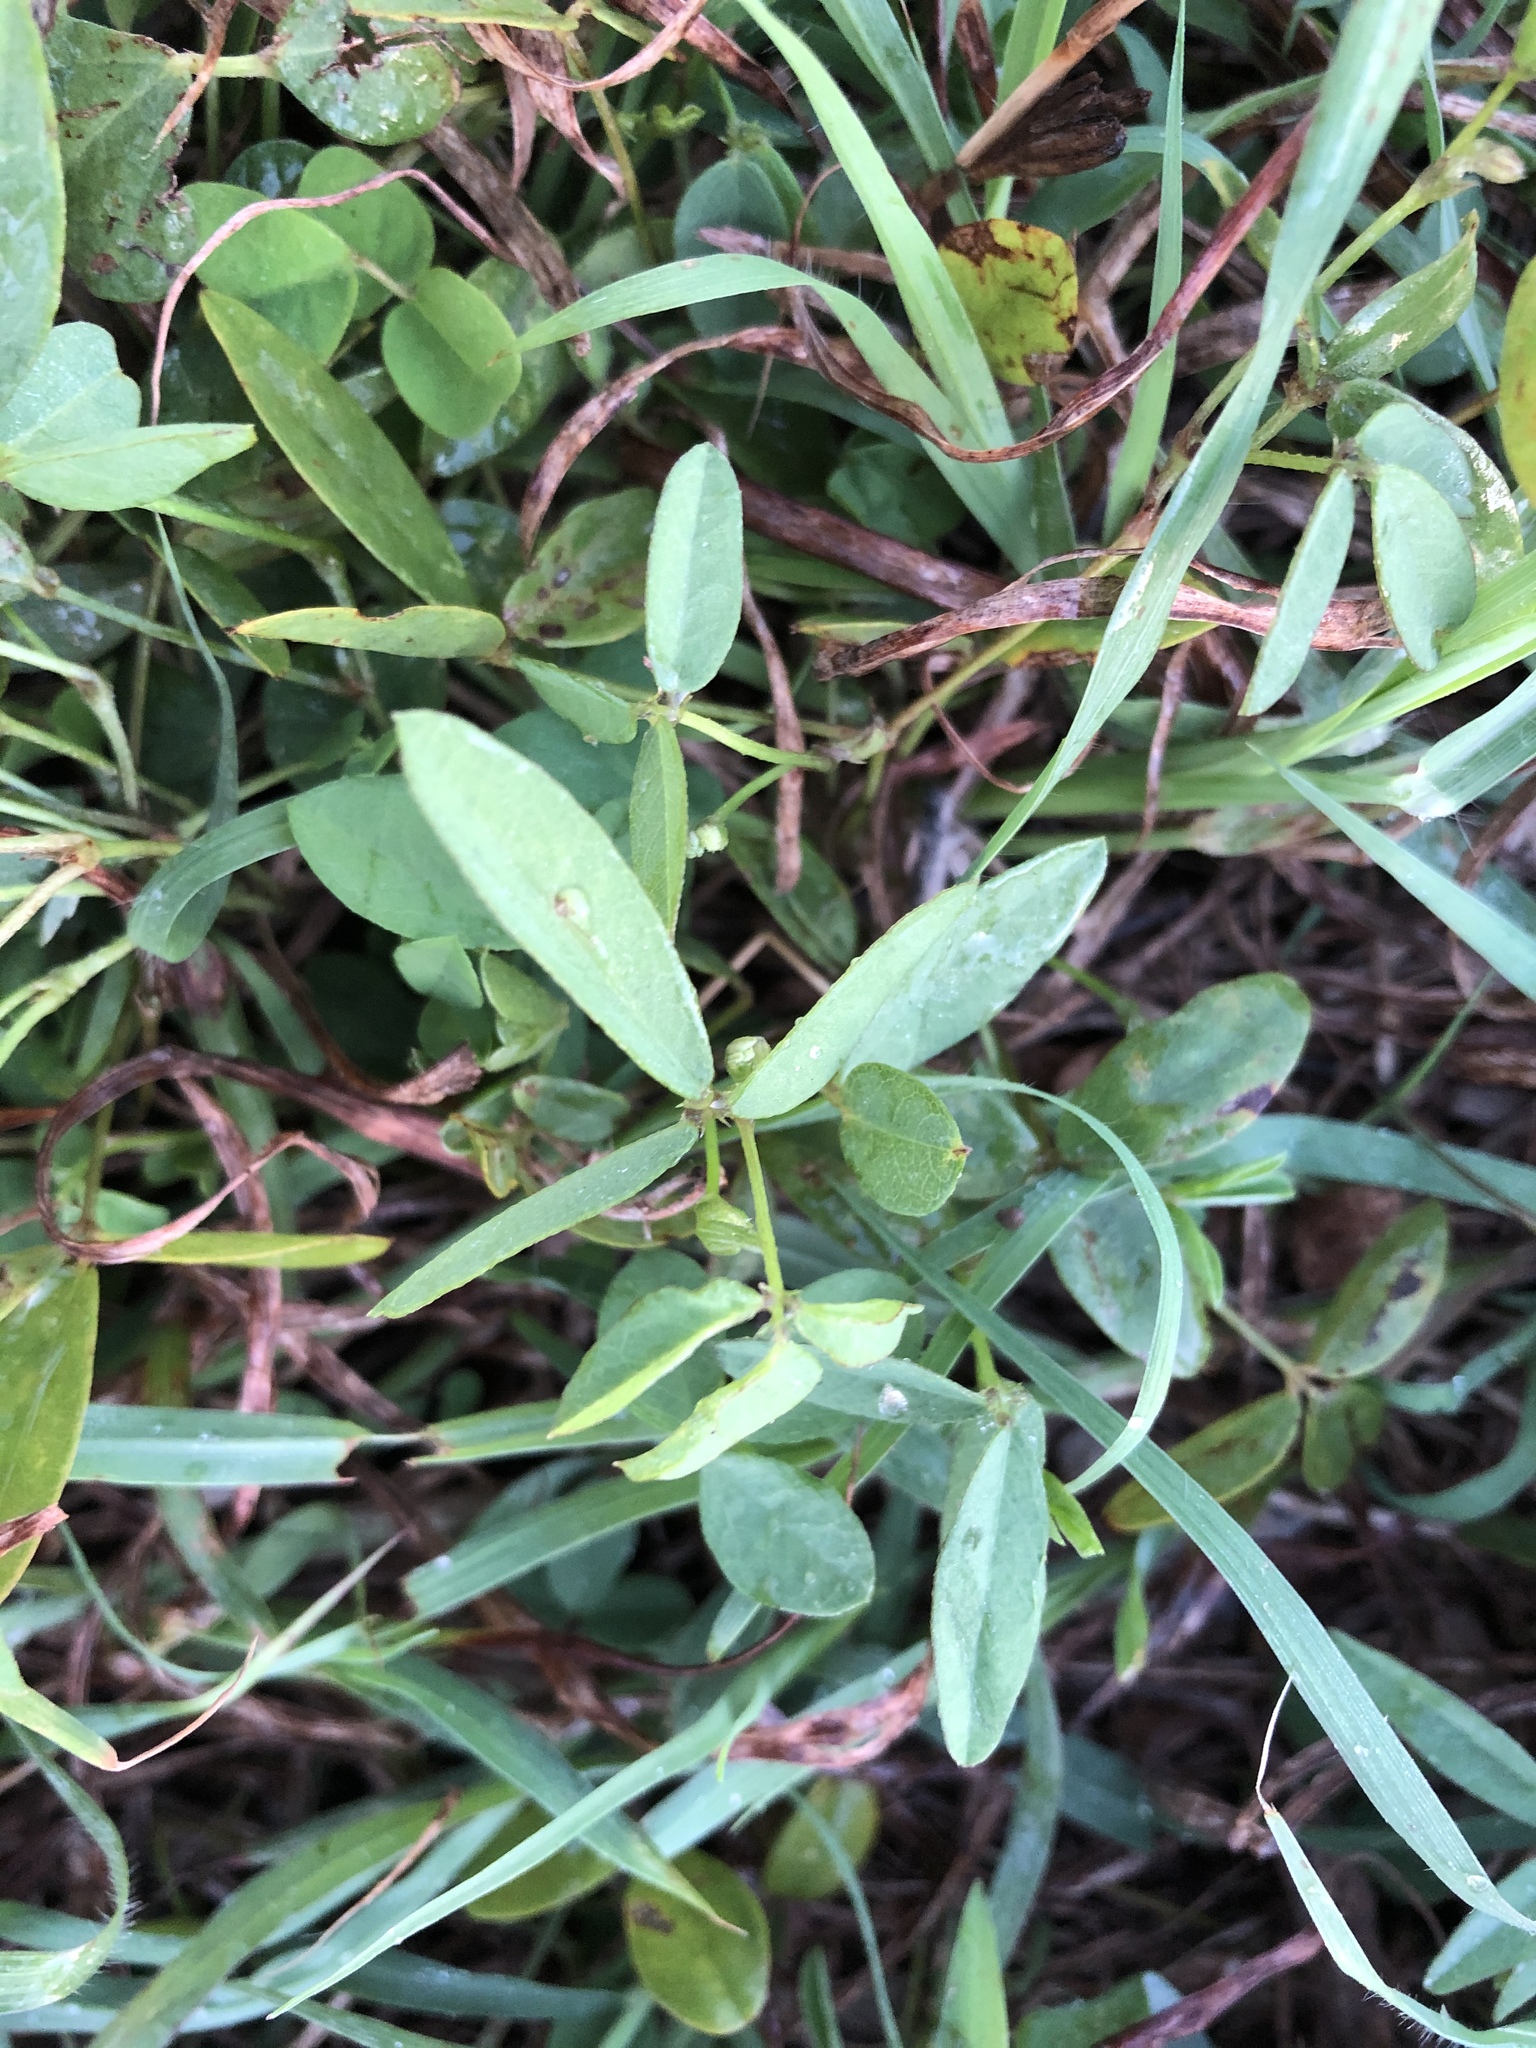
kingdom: Plantae
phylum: Tracheophyta
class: Magnoliopsida
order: Fabales
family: Fabaceae
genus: Glycine
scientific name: Glycine tabacina
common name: Pea glycine
